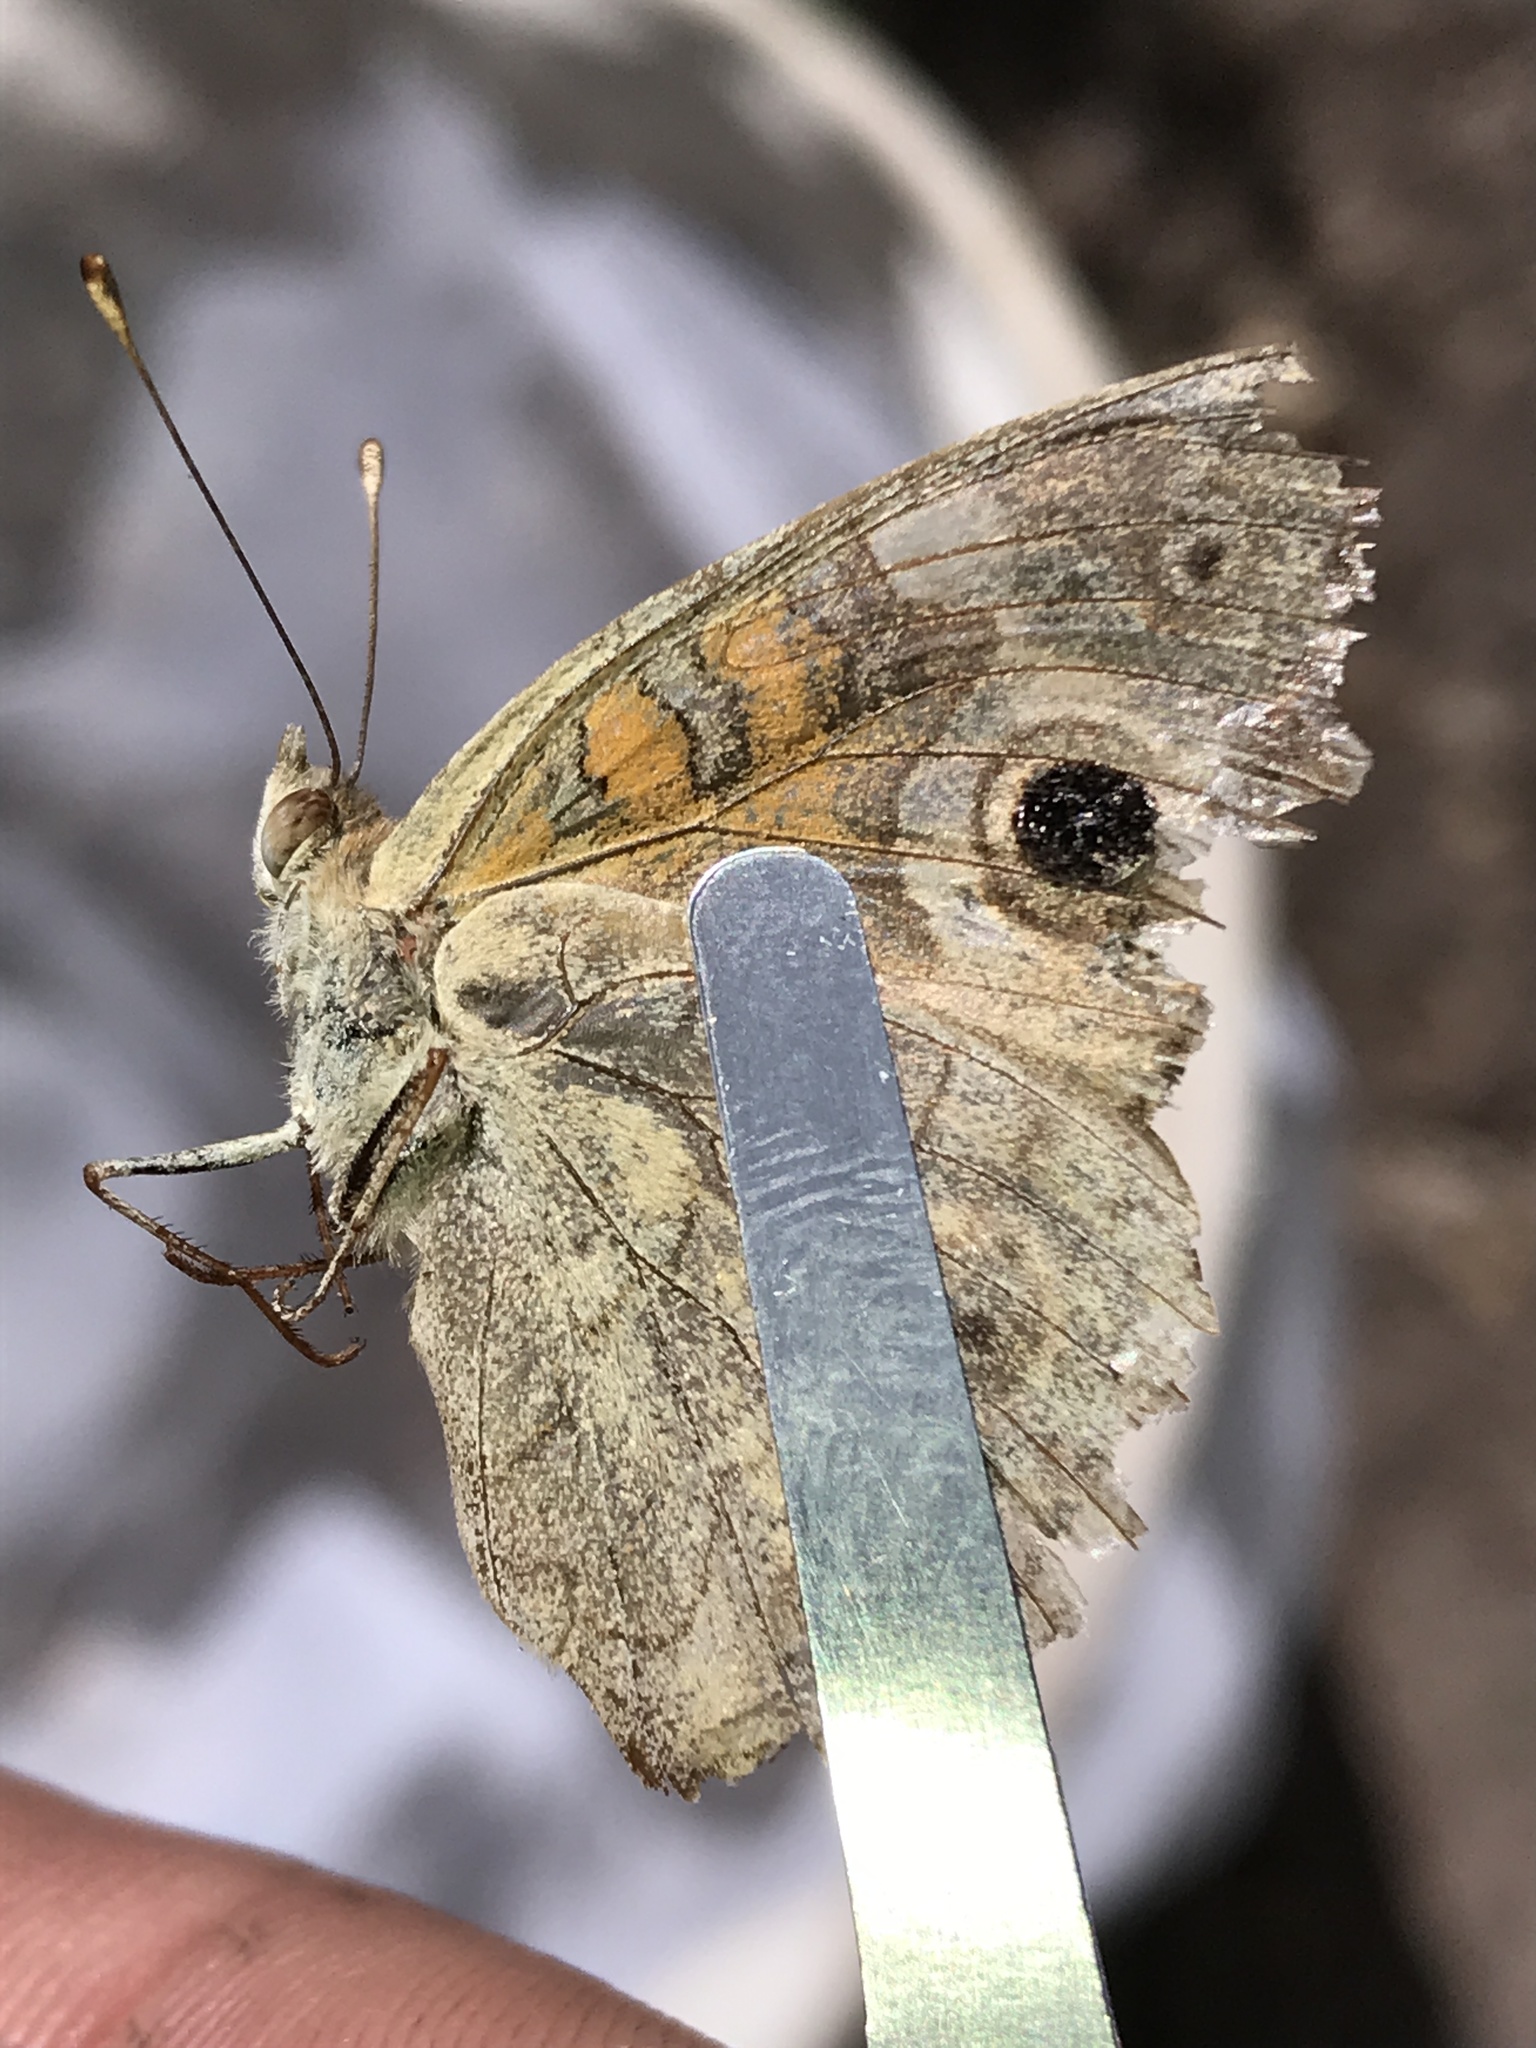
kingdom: Animalia
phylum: Arthropoda
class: Insecta
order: Lepidoptera
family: Nymphalidae
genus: Junonia
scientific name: Junonia grisea
